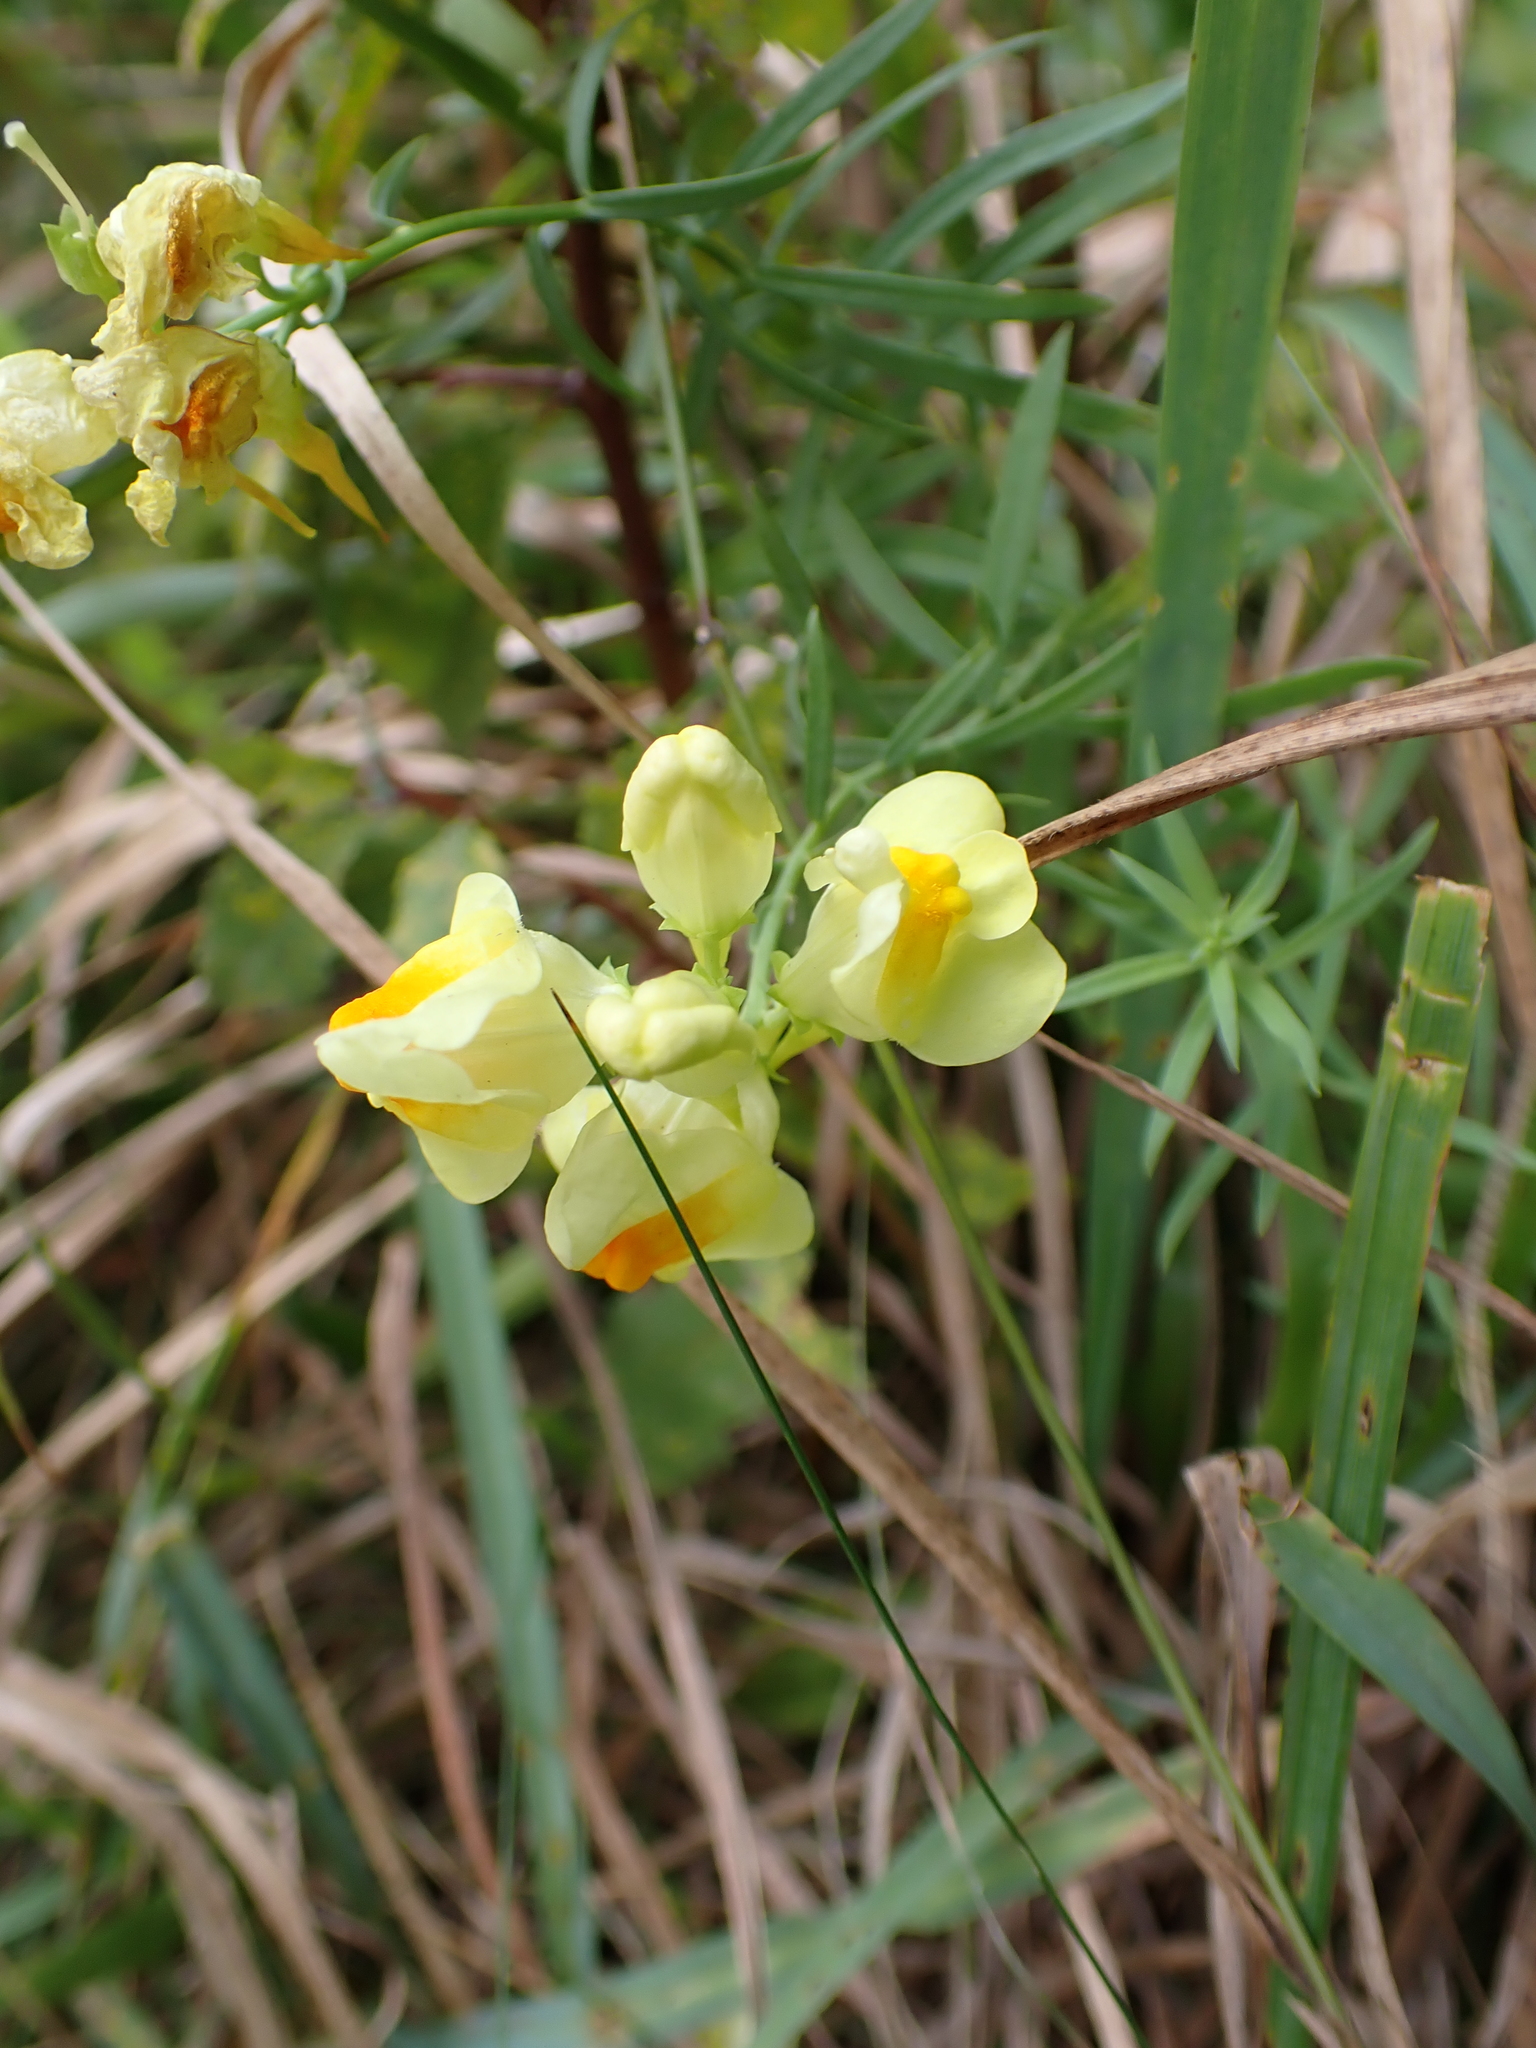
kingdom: Plantae
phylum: Tracheophyta
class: Magnoliopsida
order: Lamiales
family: Plantaginaceae
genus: Linaria
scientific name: Linaria vulgaris
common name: Butter and eggs
